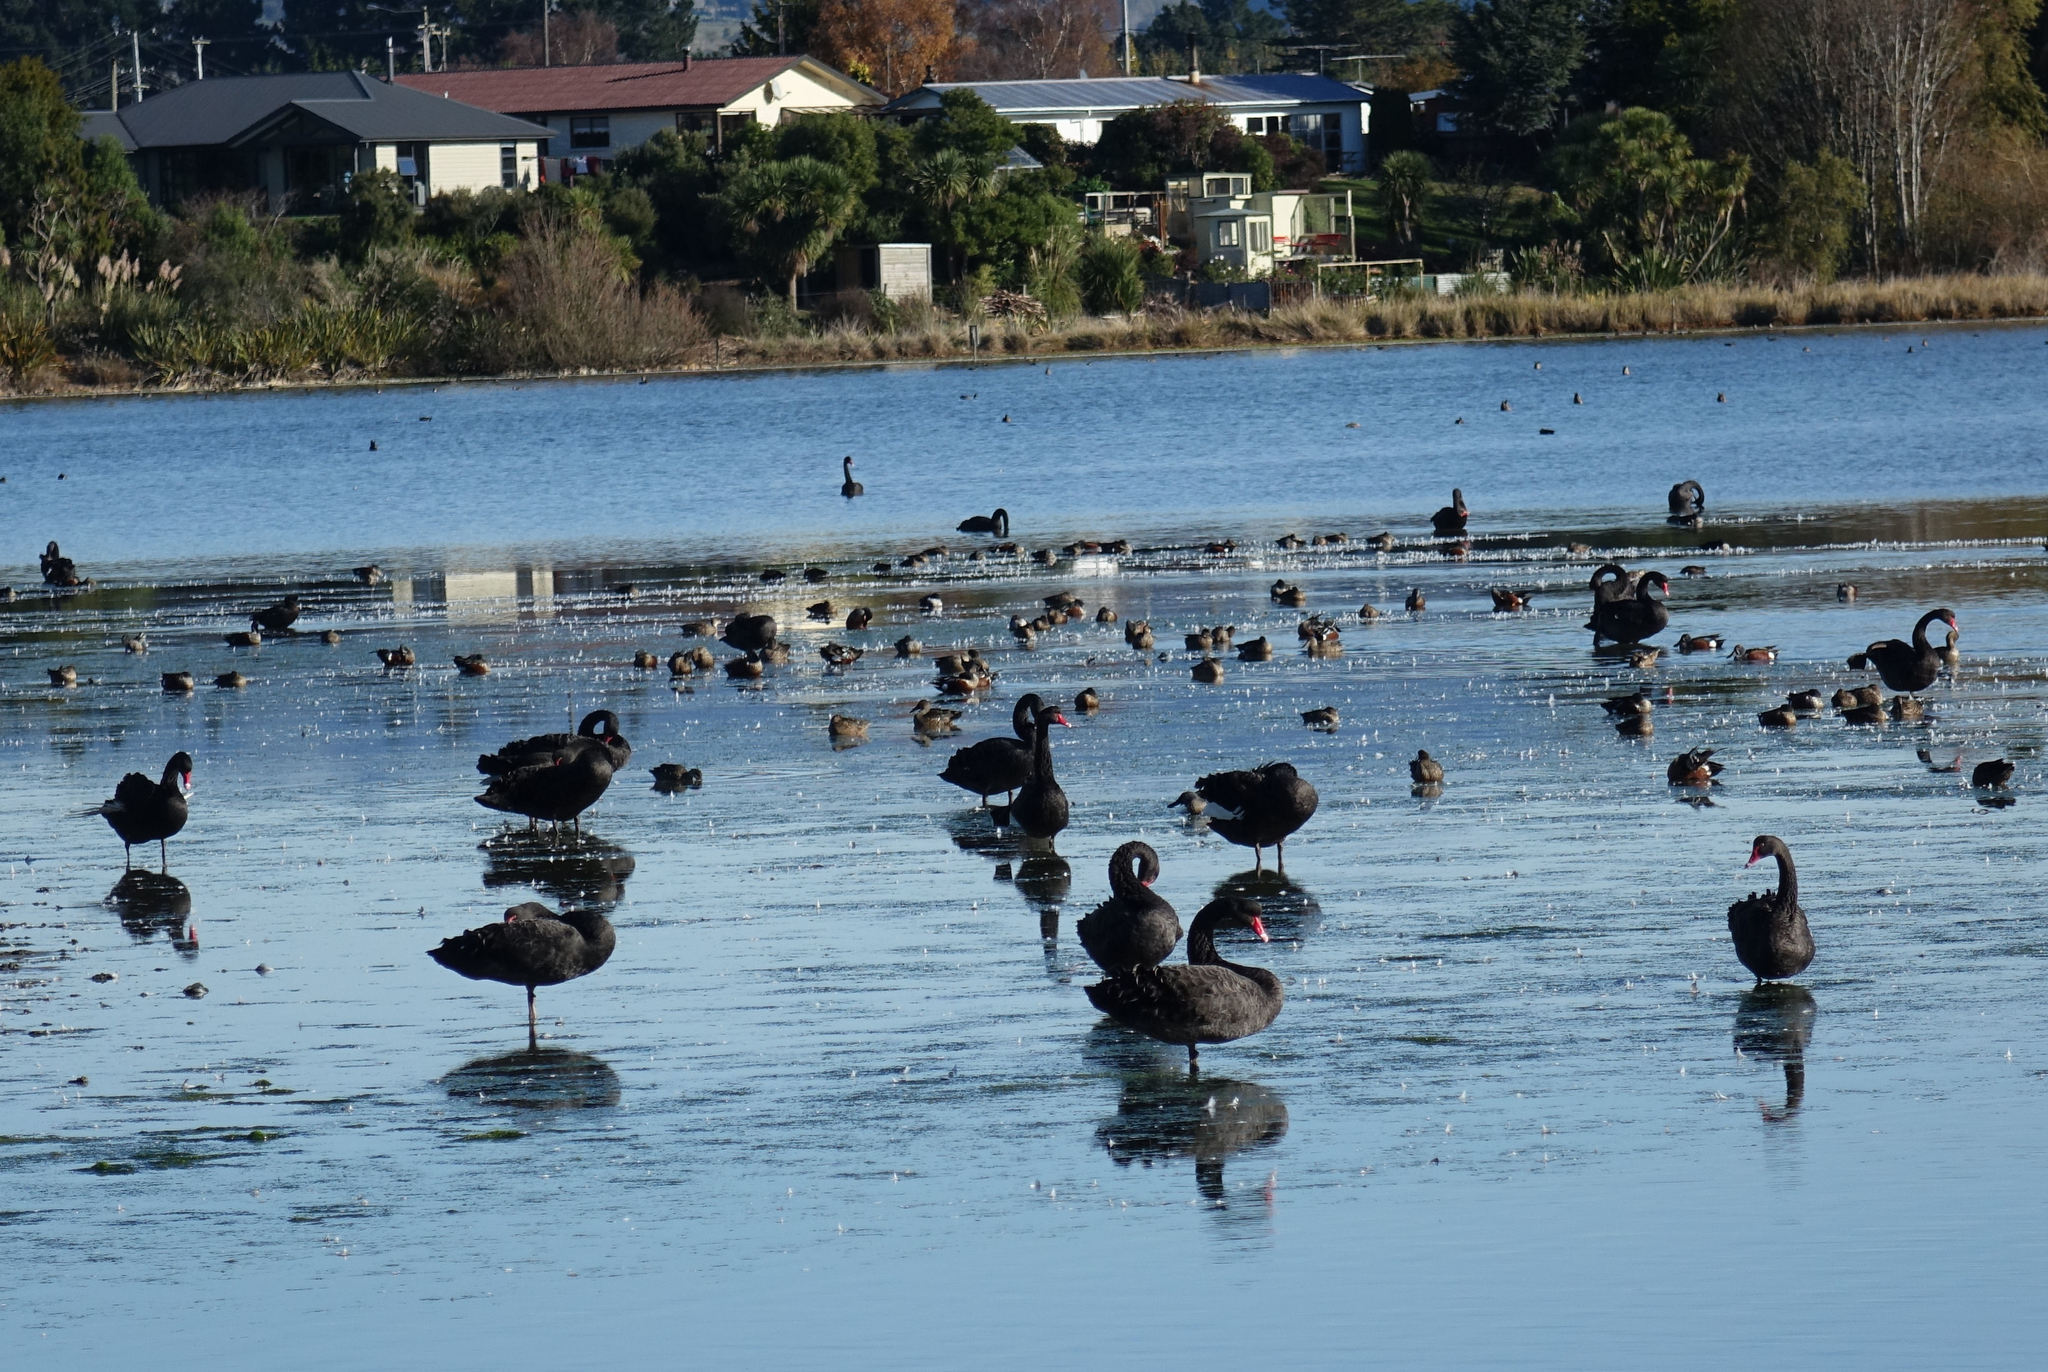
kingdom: Animalia
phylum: Chordata
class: Aves
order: Anseriformes
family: Anatidae
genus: Cygnus
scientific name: Cygnus atratus
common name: Black swan
